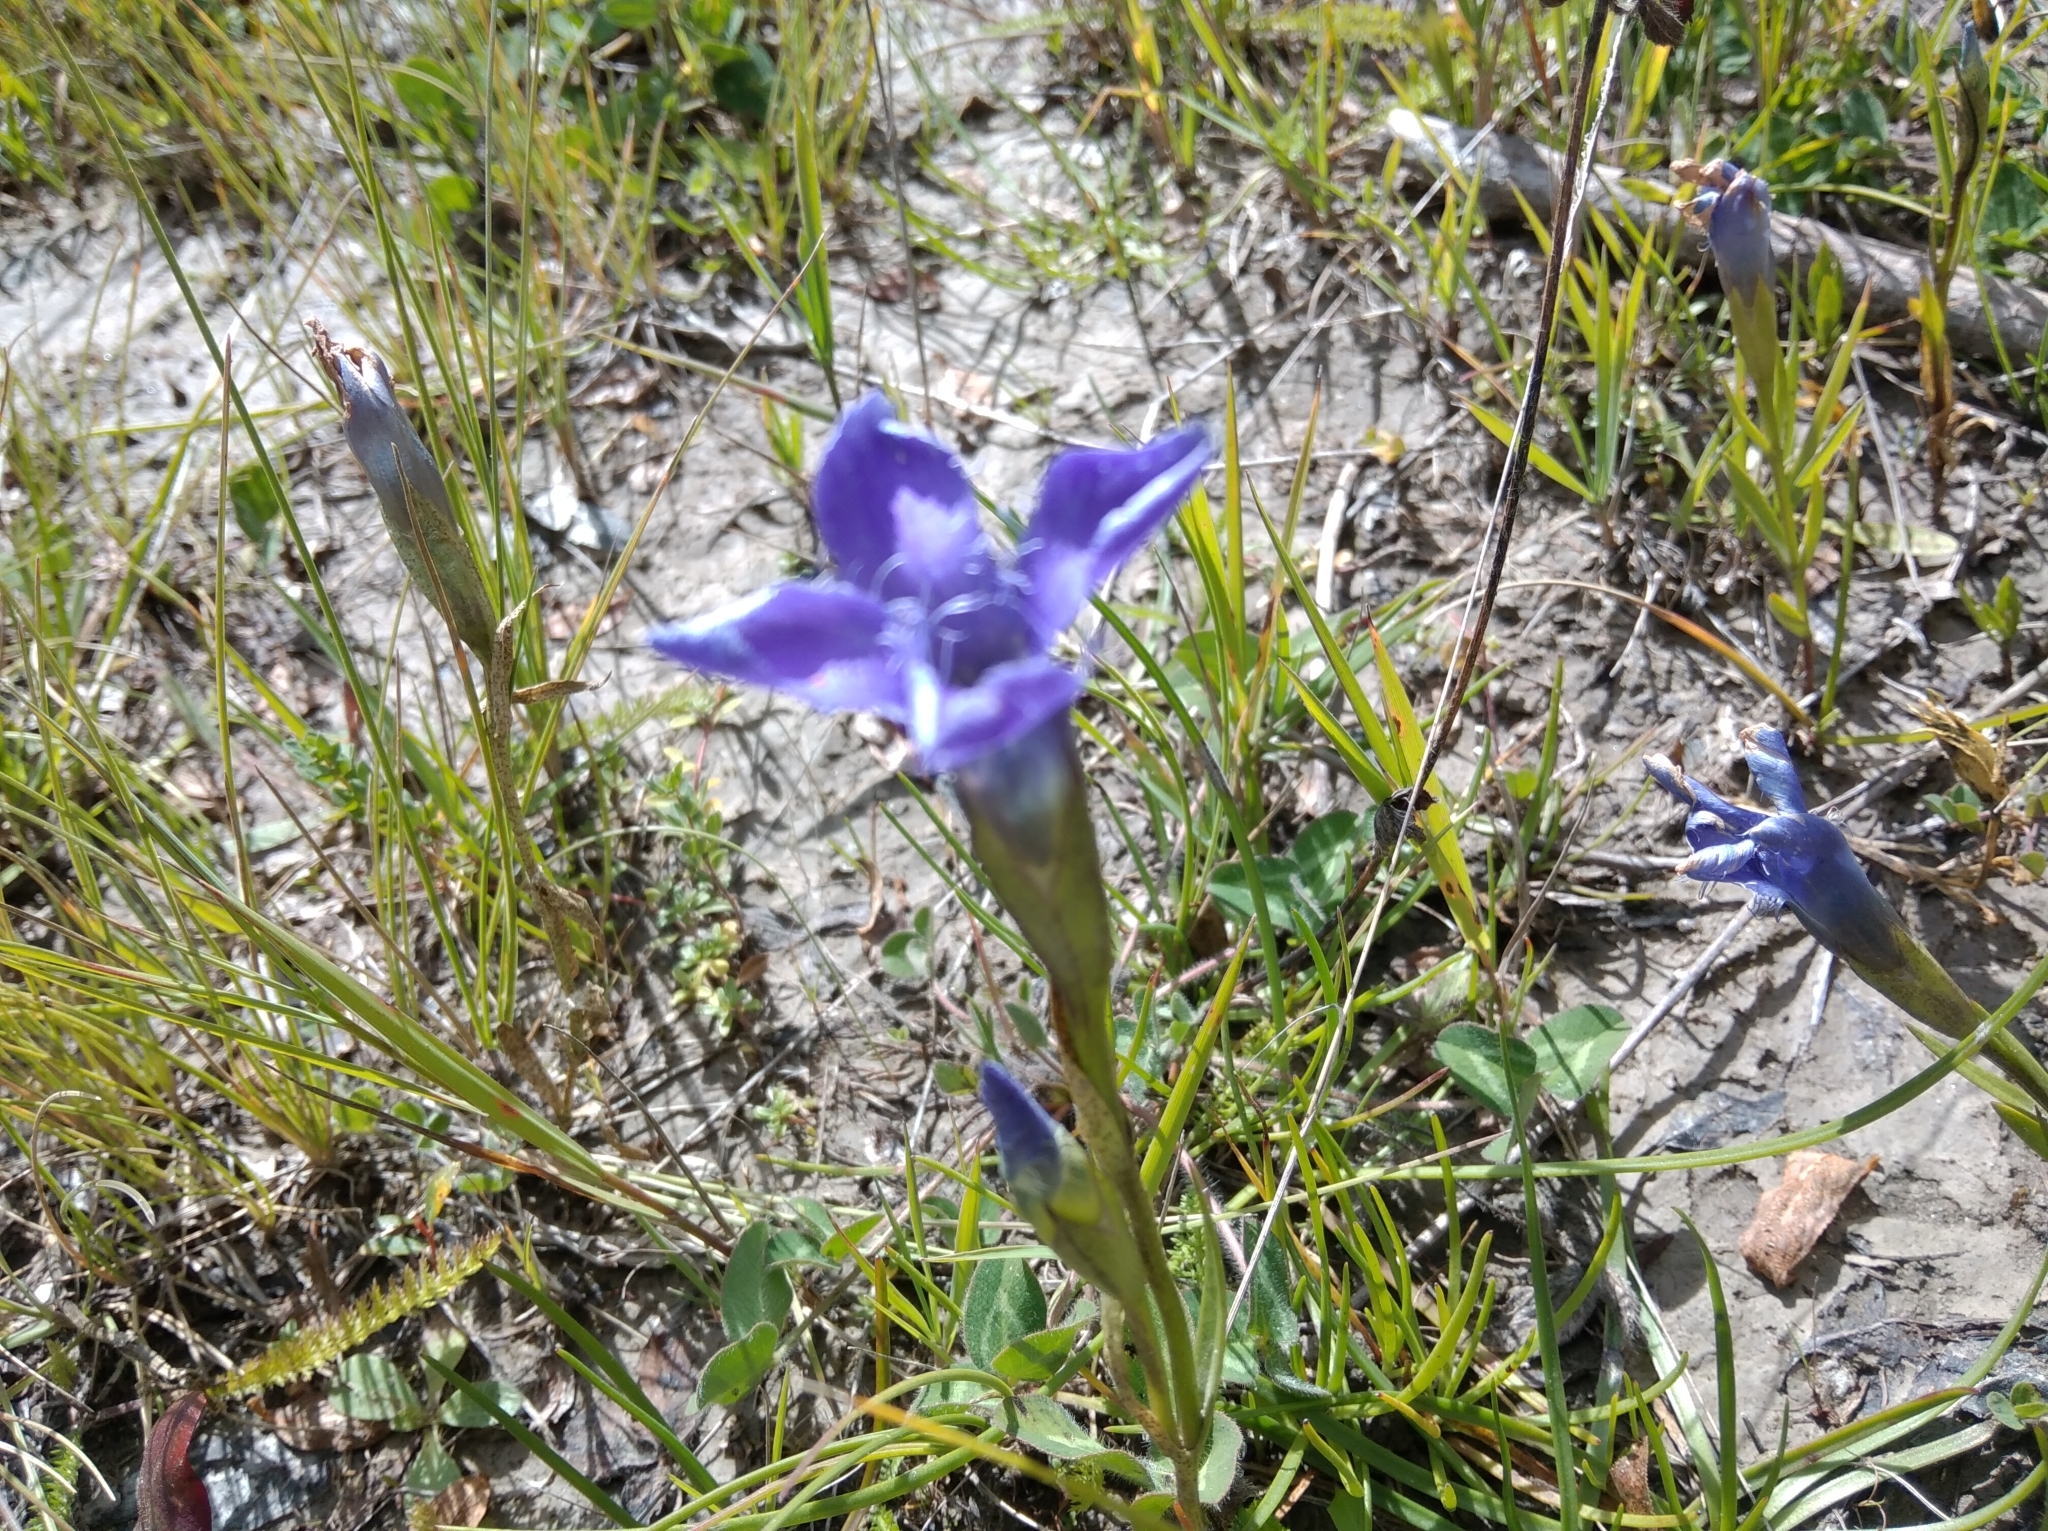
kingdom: Plantae
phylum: Tracheophyta
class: Magnoliopsida
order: Gentianales
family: Gentianaceae
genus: Gentianopsis
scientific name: Gentianopsis ciliata
